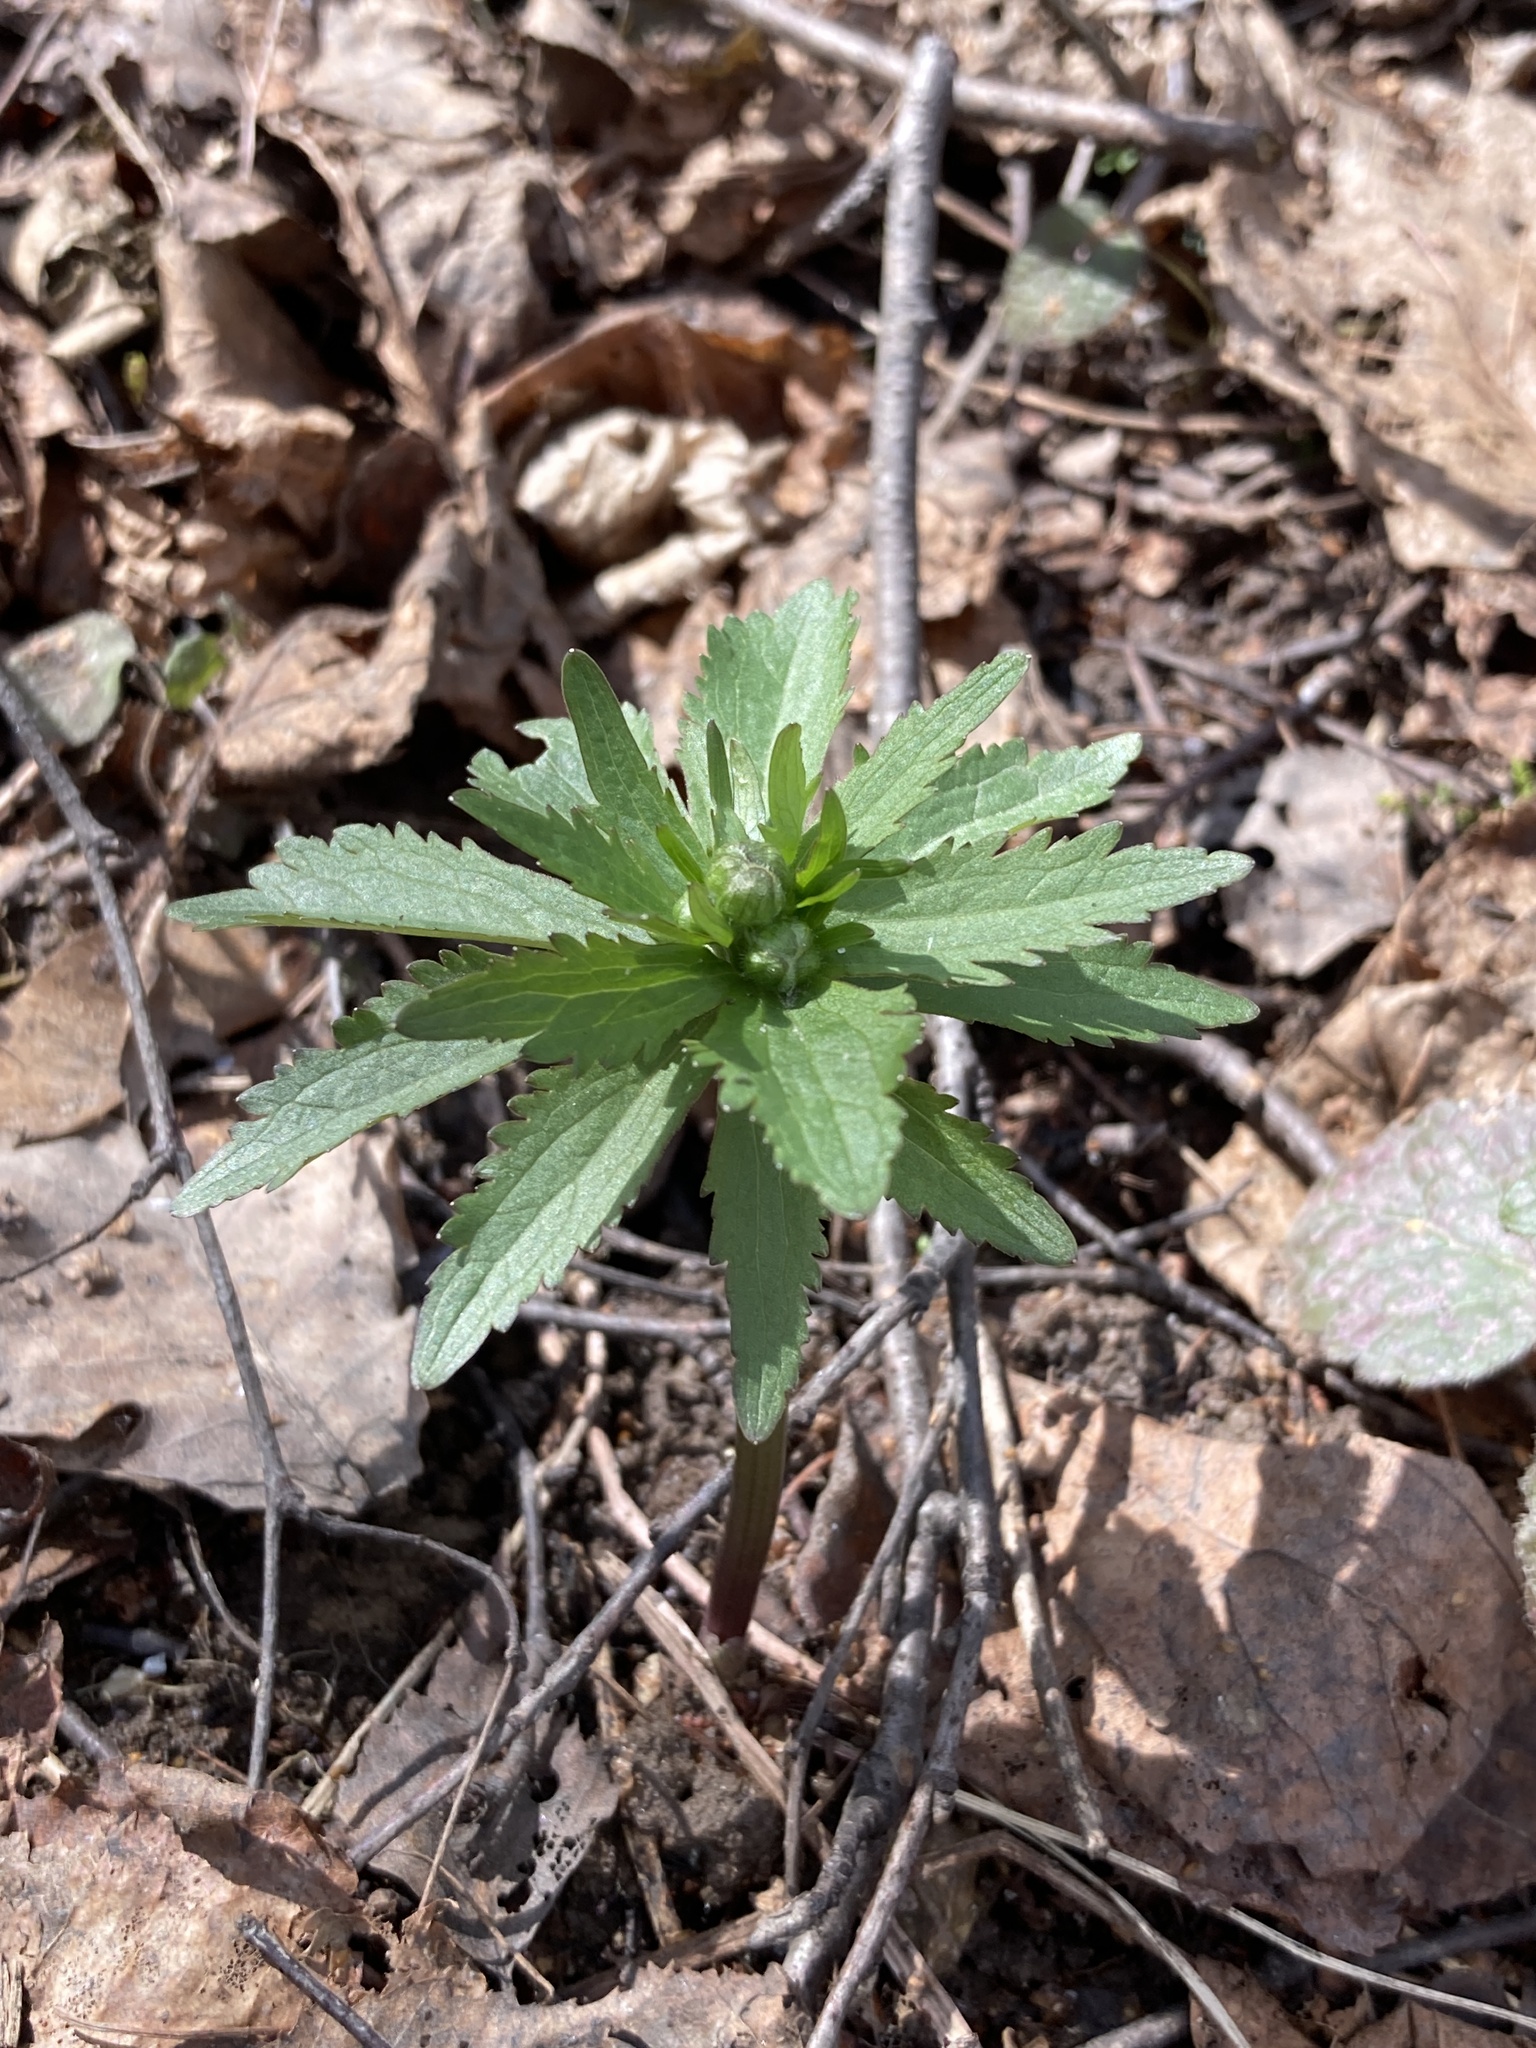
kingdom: Plantae
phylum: Tracheophyta
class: Magnoliopsida
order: Ranunculales
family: Ranunculaceae
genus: Ranunculus
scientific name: Ranunculus cassubicus
